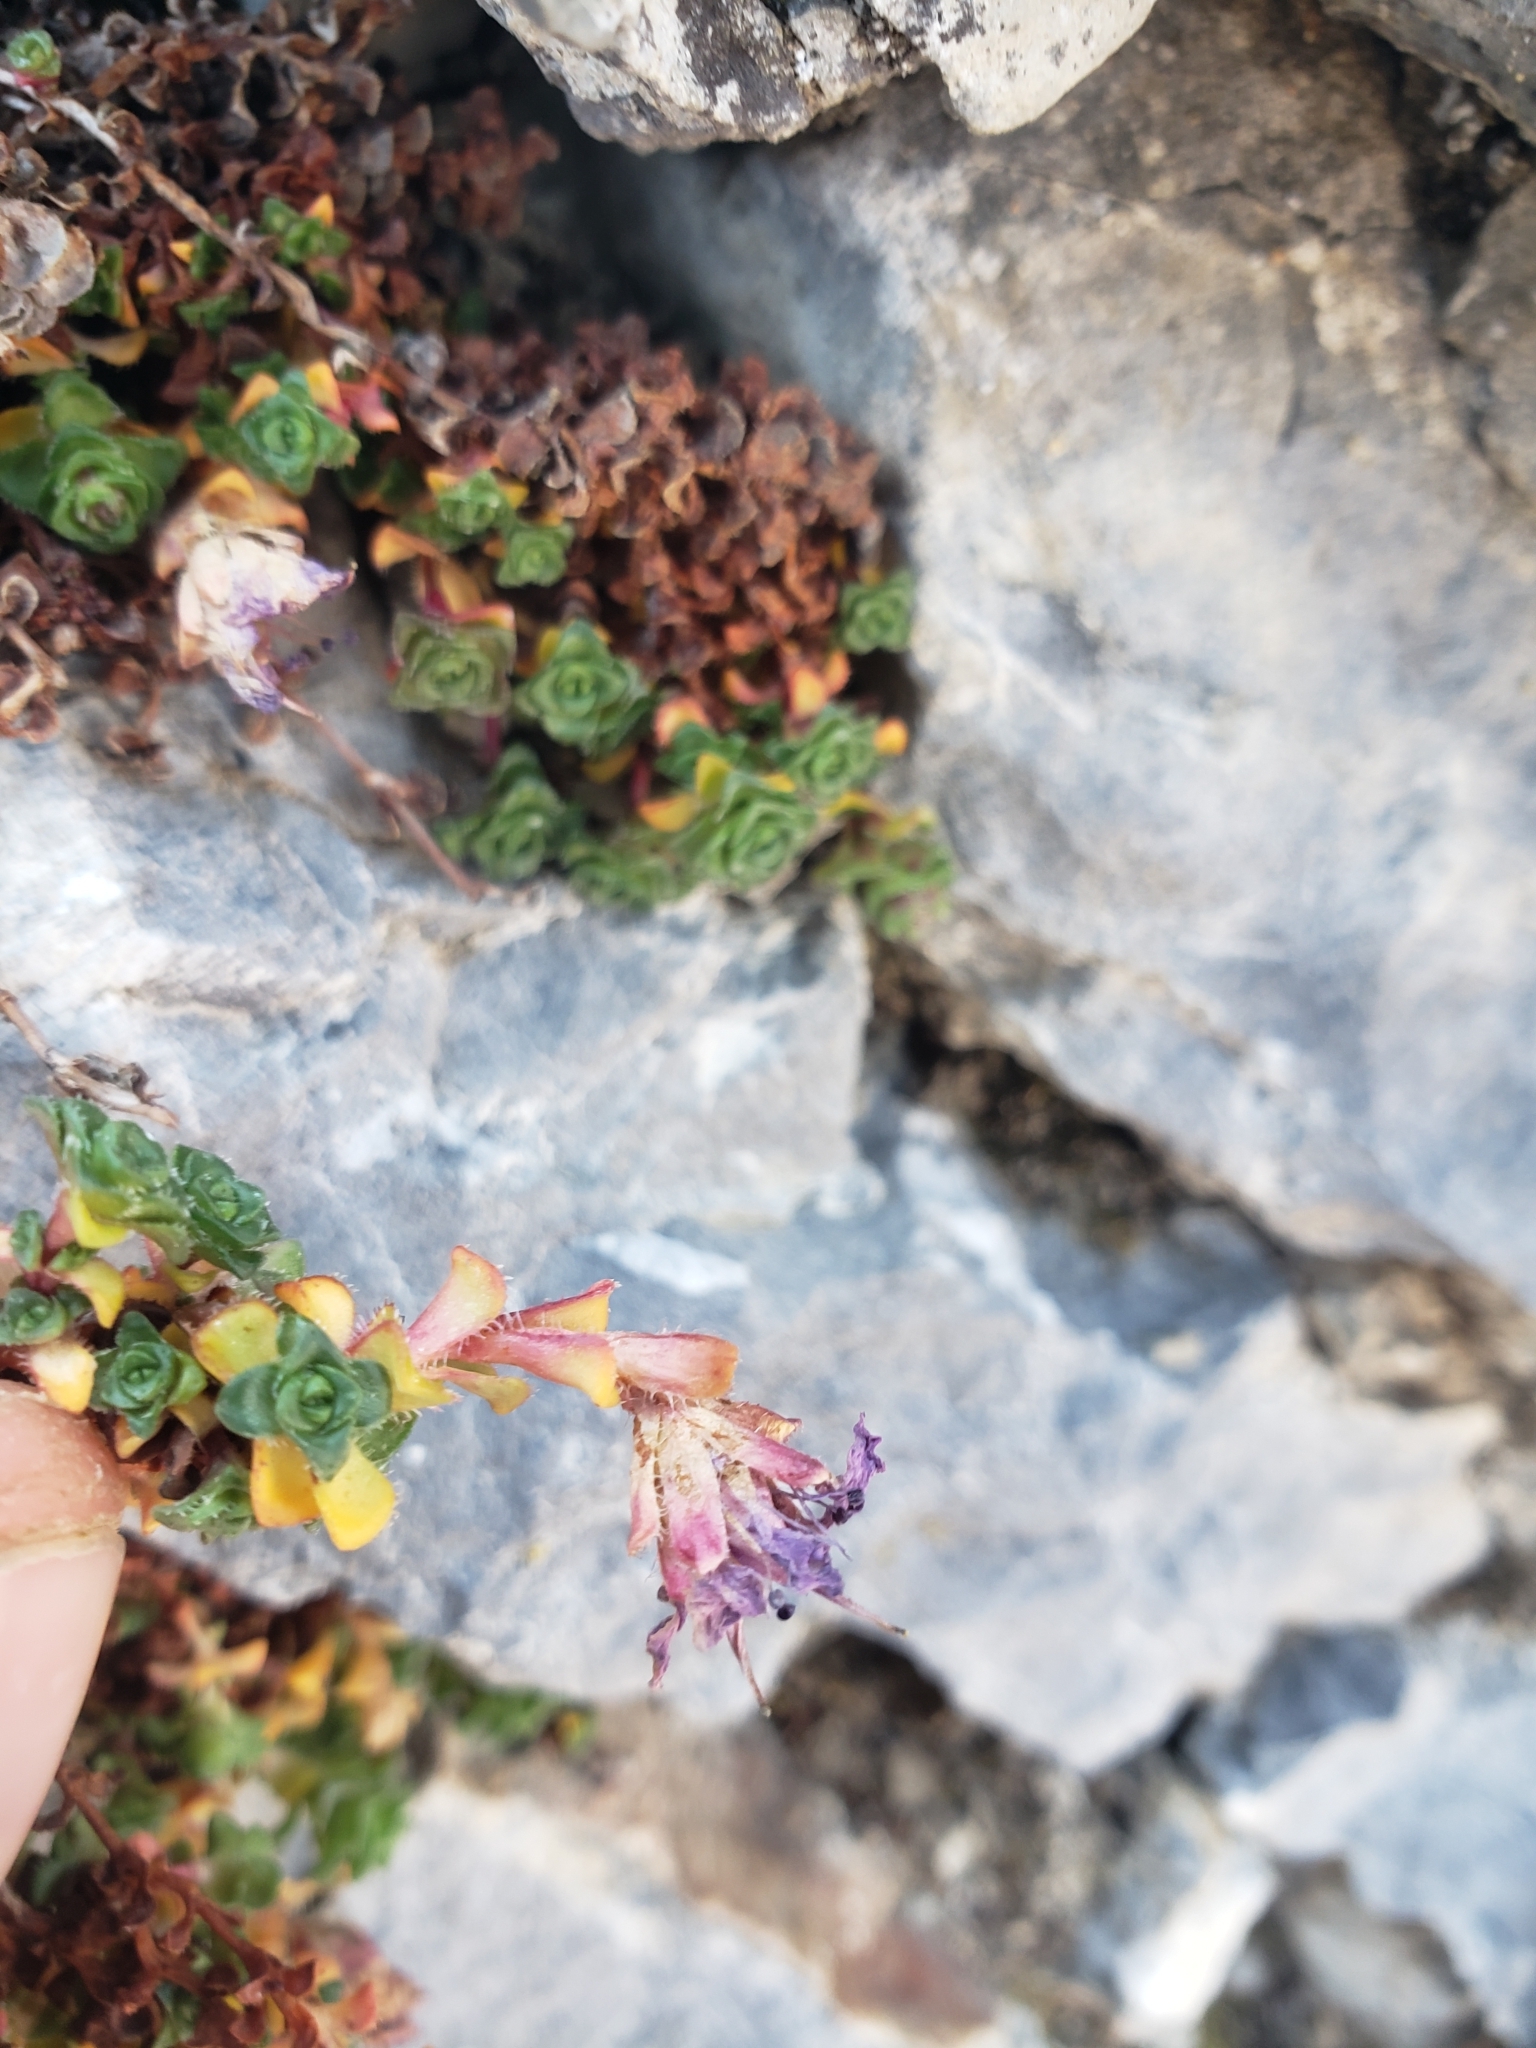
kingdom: Plantae
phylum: Tracheophyta
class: Magnoliopsida
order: Saxifragales
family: Saxifragaceae
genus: Saxifraga
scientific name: Saxifraga oppositifolia
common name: Purple saxifrage
